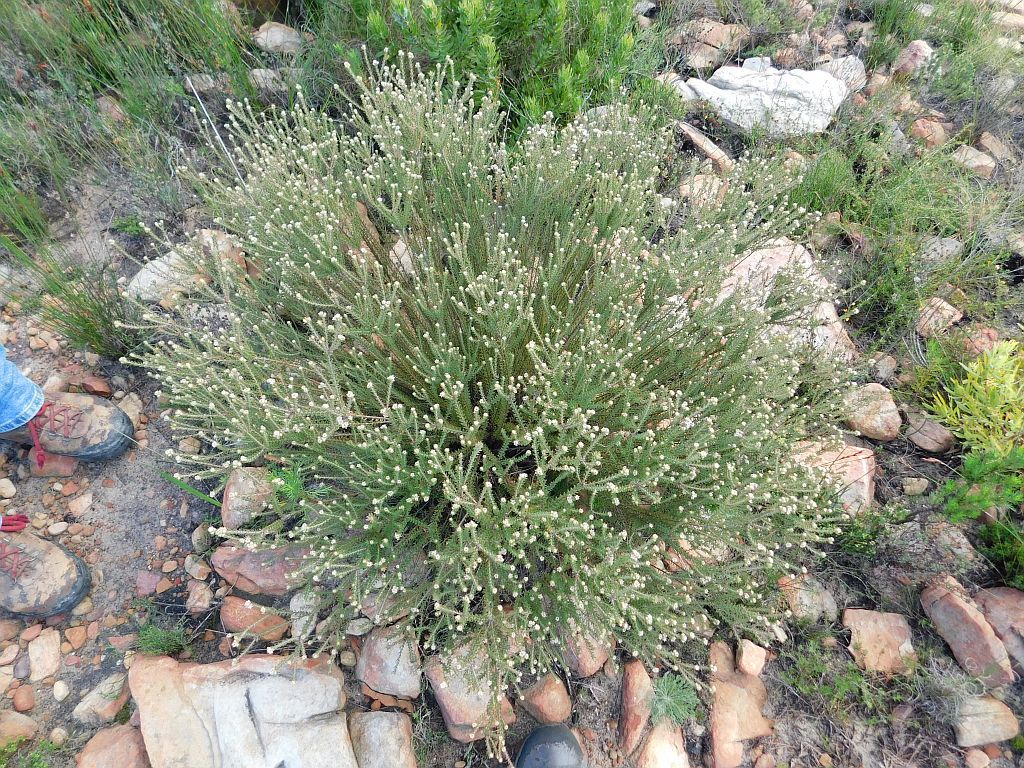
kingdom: Plantae
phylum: Tracheophyta
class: Magnoliopsida
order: Bruniales
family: Bruniaceae
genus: Staavia
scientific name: Staavia capitella
